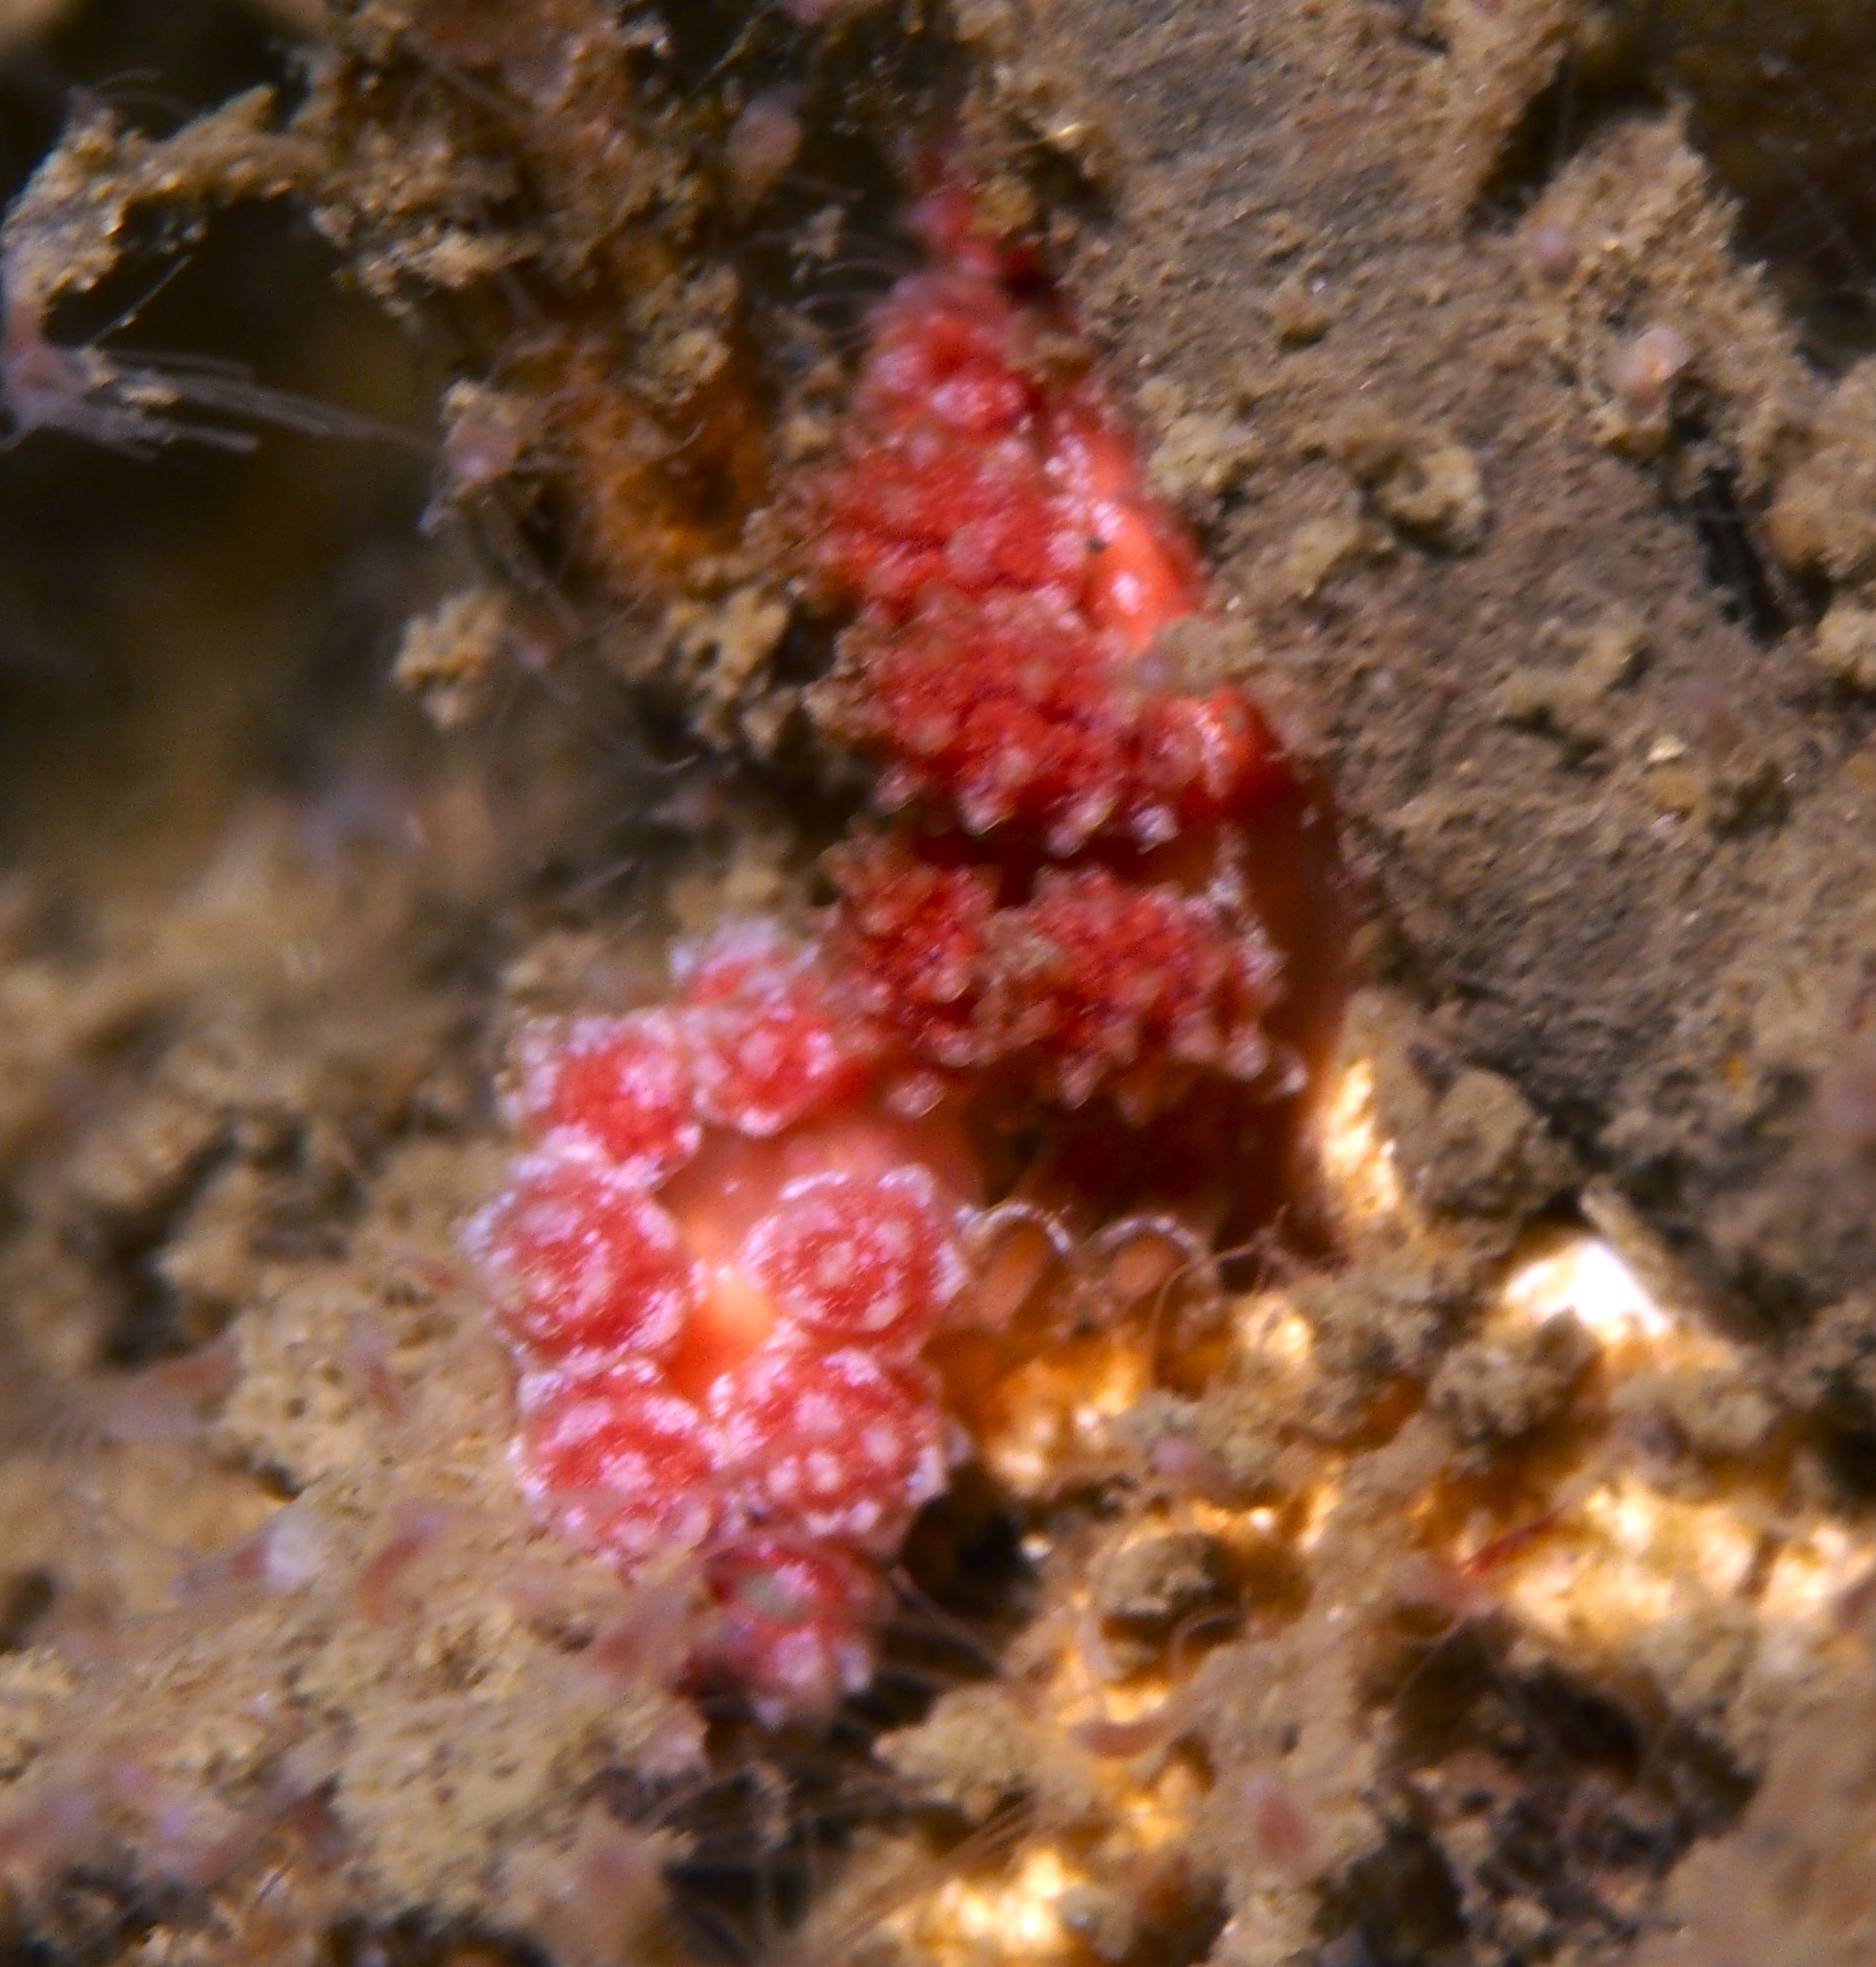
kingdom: Animalia
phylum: Mollusca
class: Gastropoda
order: Nudibranchia
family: Dotidae
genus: Doto
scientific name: Doto fragilis
